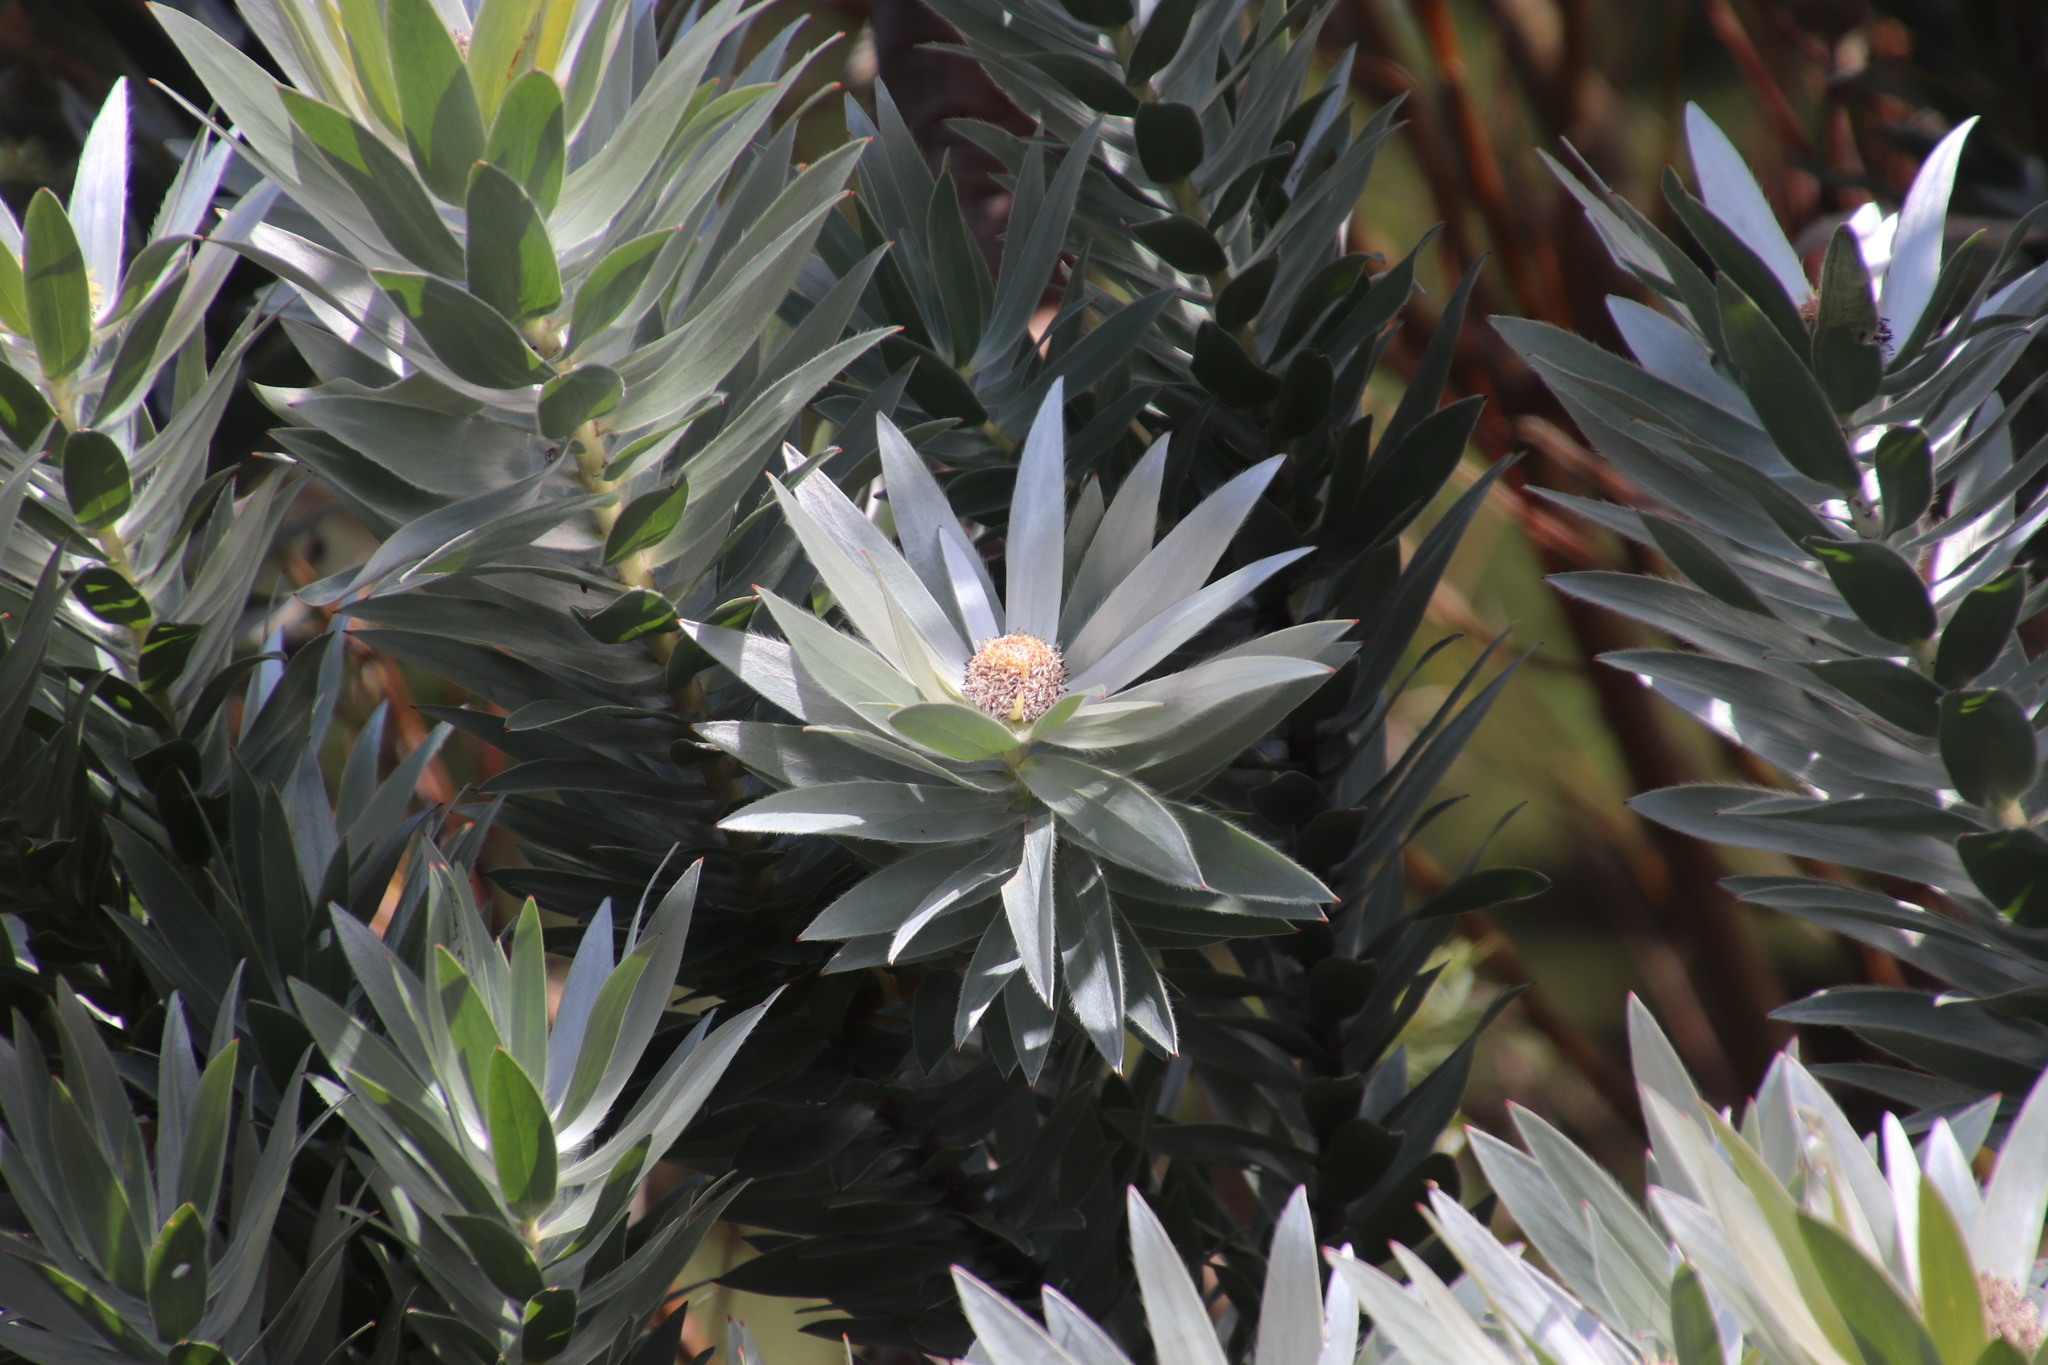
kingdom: Plantae
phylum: Tracheophyta
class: Magnoliopsida
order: Proteales
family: Proteaceae
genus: Leucadendron
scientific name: Leucadendron argenteum
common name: Cape silver tree
